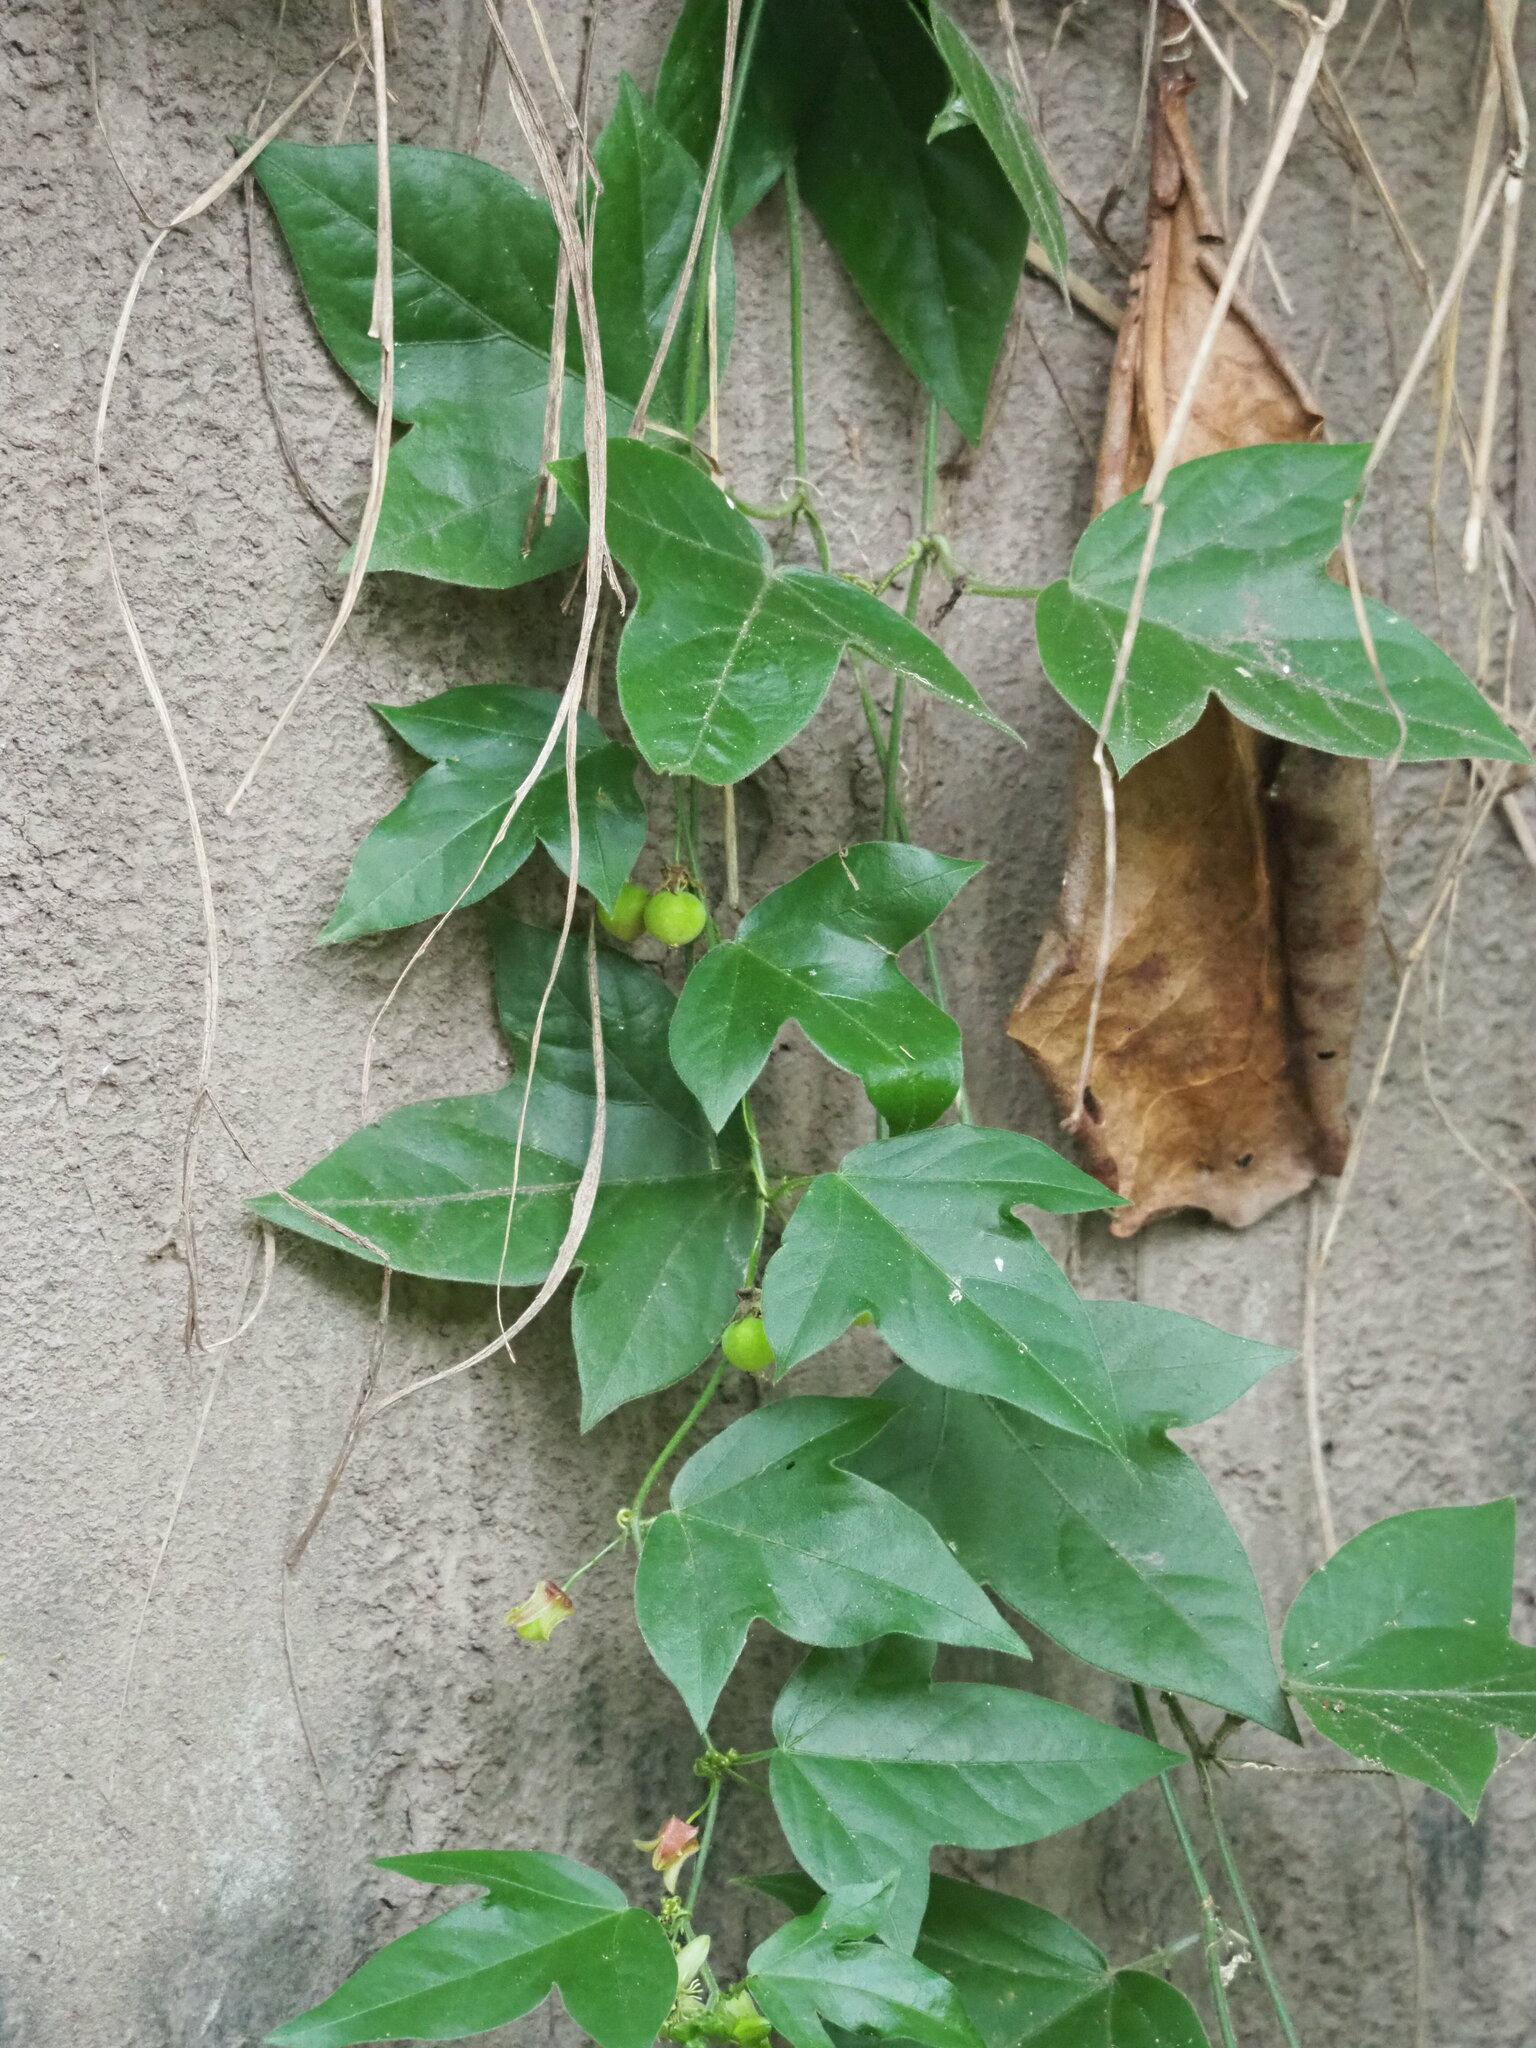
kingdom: Plantae
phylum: Tracheophyta
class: Magnoliopsida
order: Malpighiales
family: Passifloraceae
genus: Passiflora
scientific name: Passiflora suberosa
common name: Wild passionfruit
